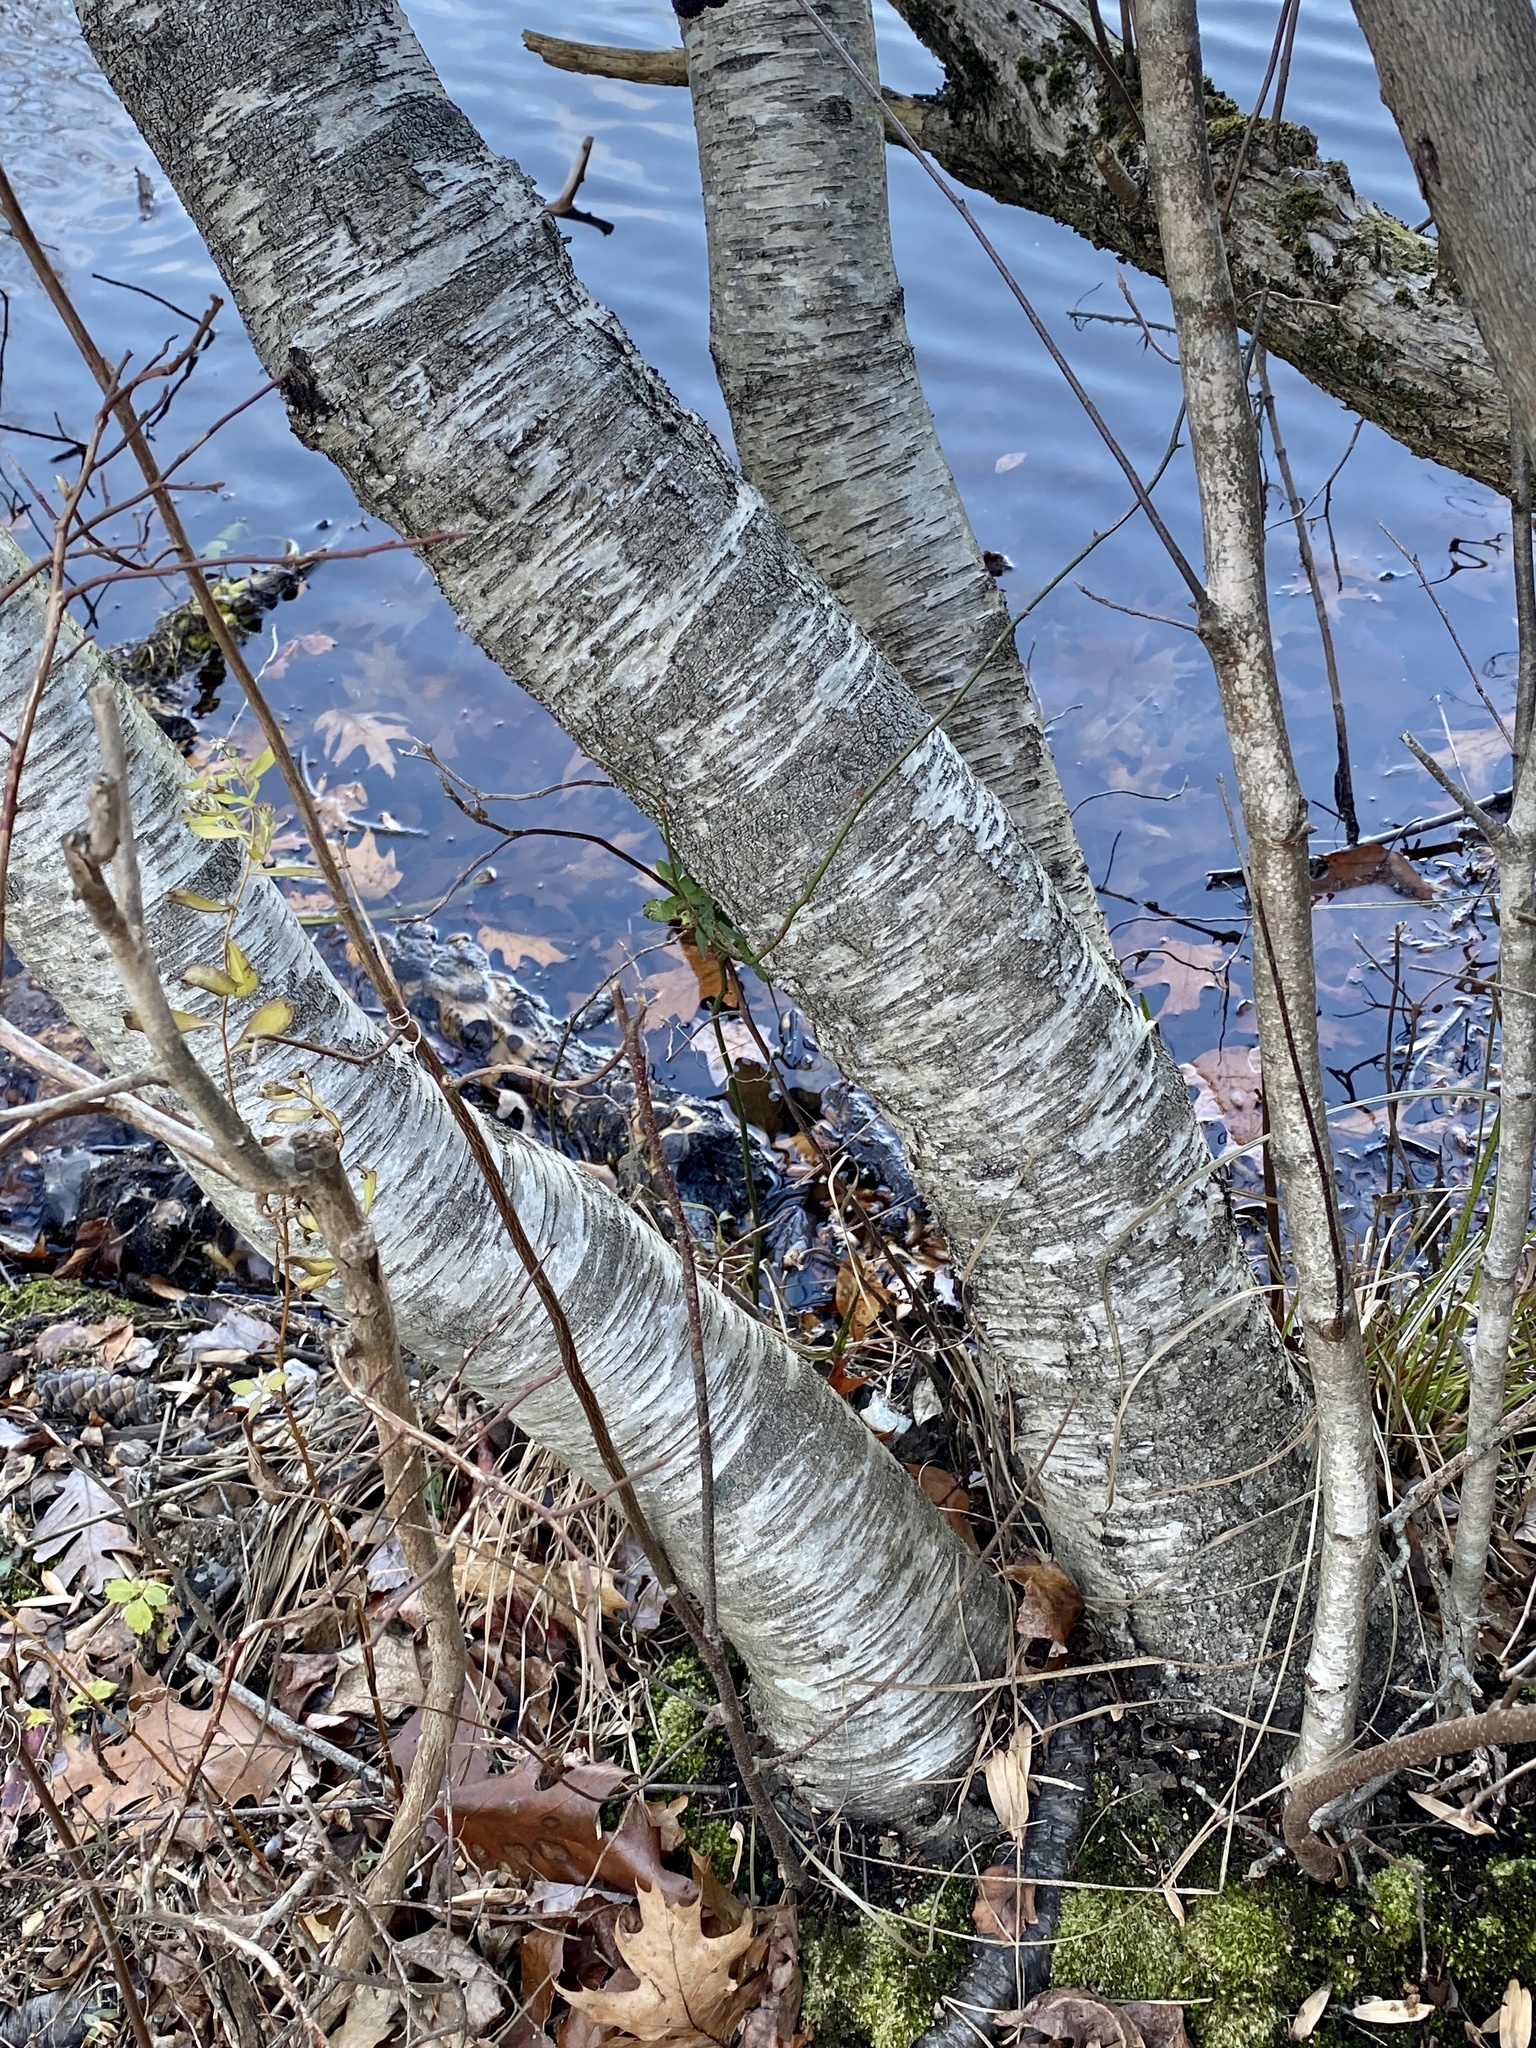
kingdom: Plantae
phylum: Tracheophyta
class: Magnoliopsida
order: Fagales
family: Betulaceae
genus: Betula
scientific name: Betula populifolia
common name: Fire birch
